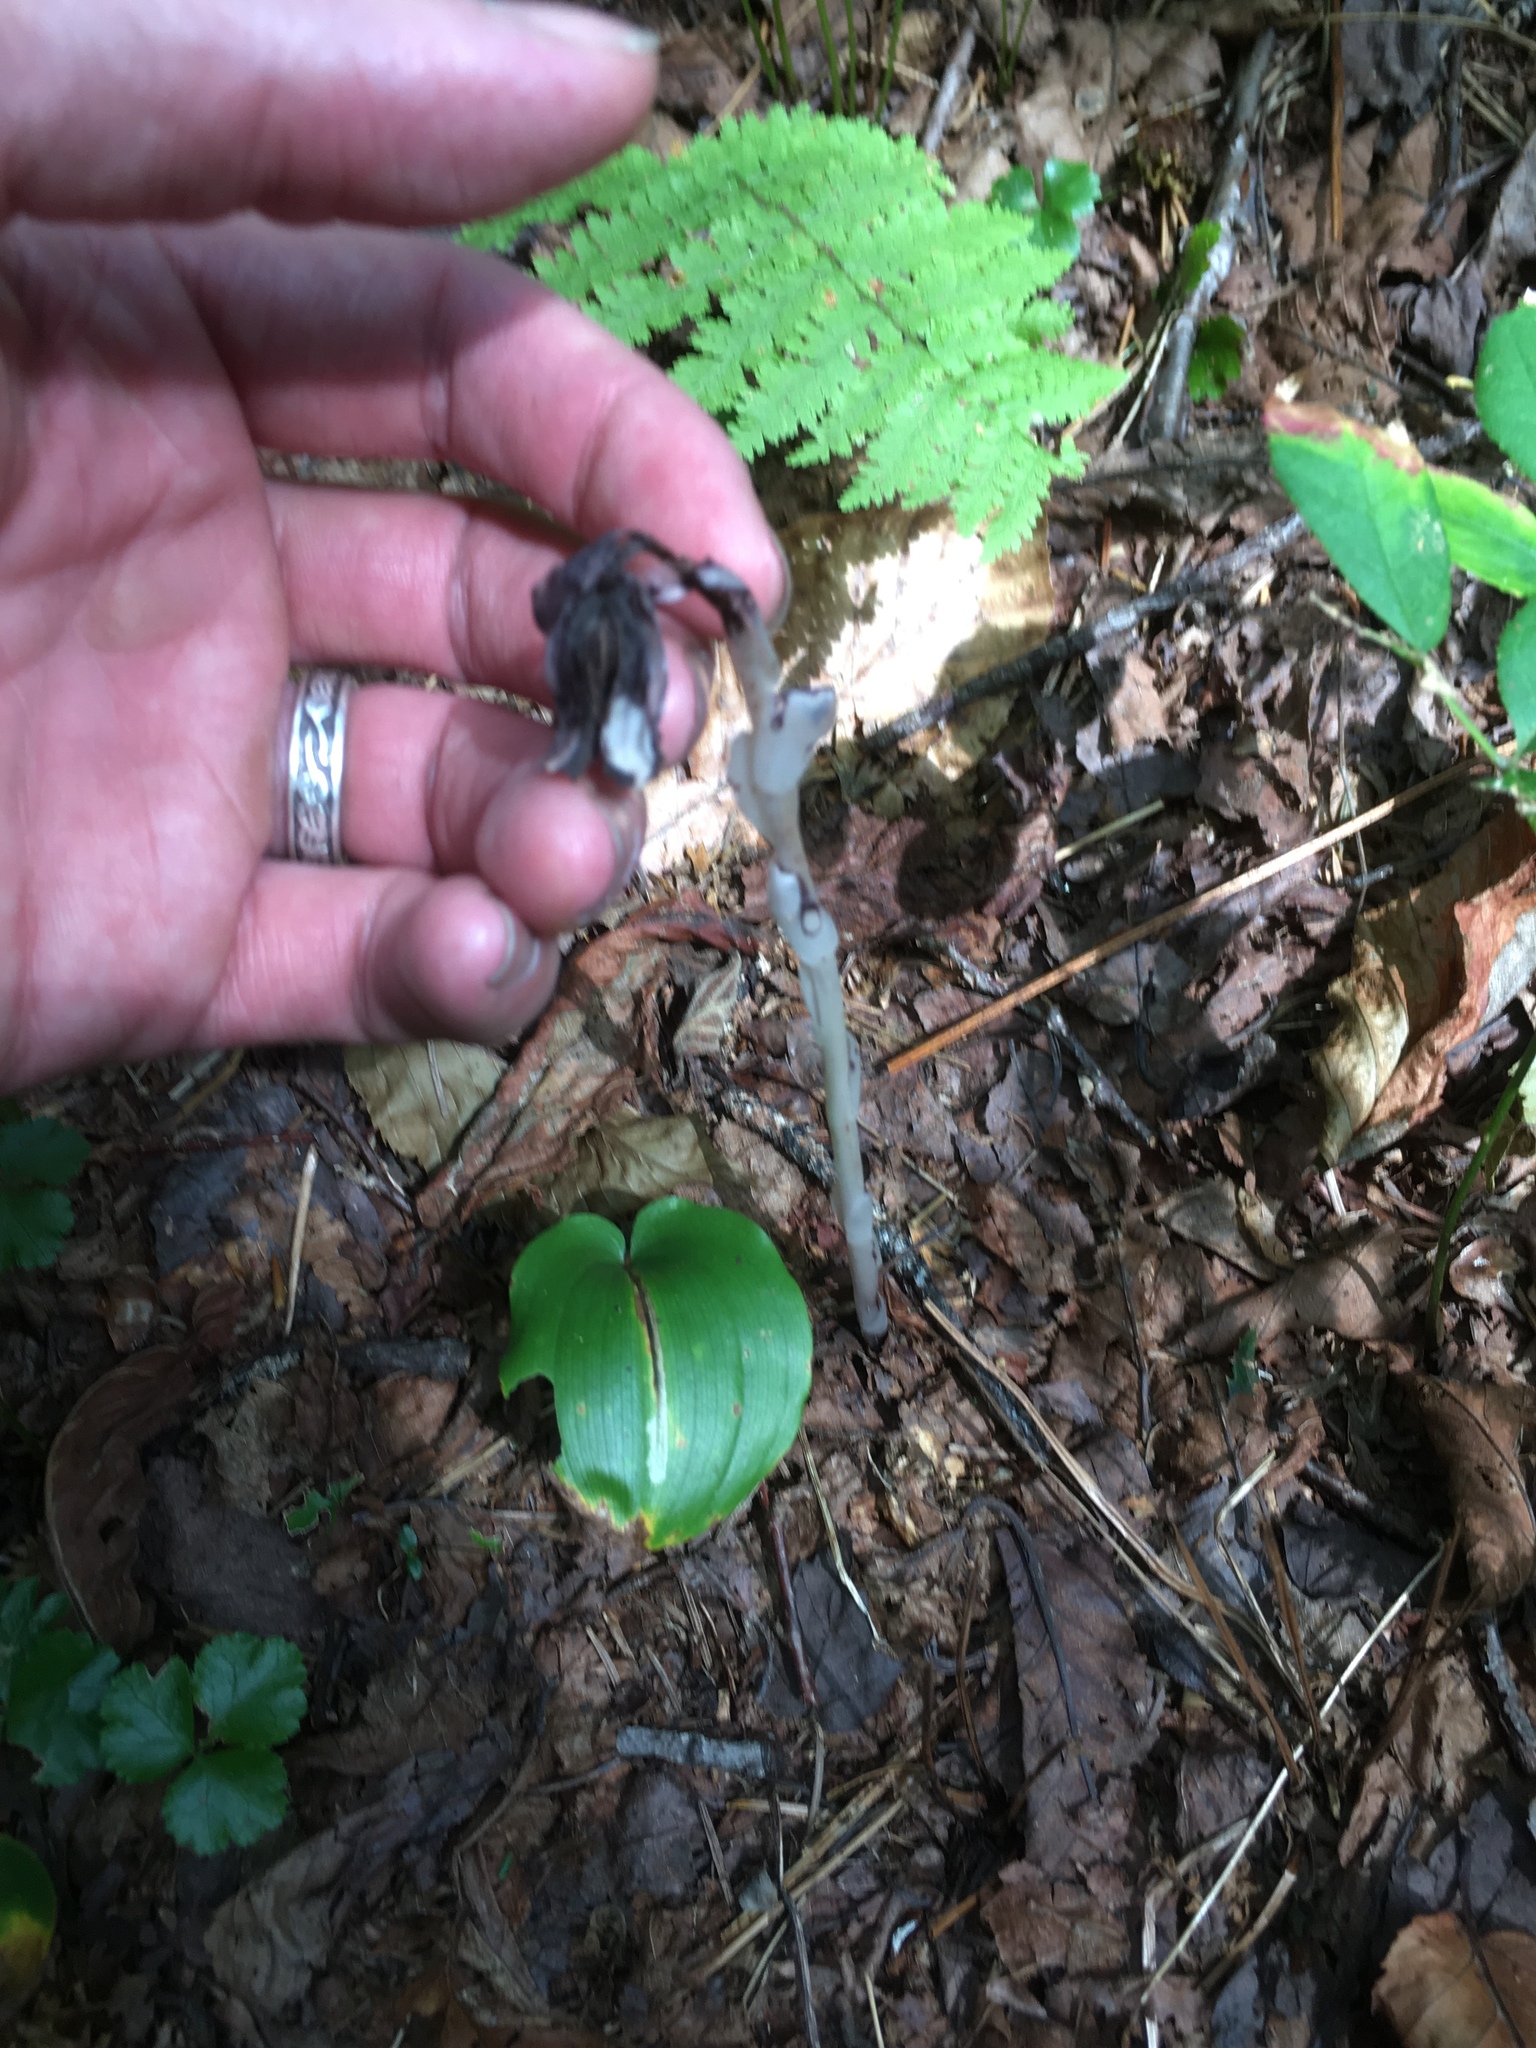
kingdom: Plantae
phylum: Tracheophyta
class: Magnoliopsida
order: Ericales
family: Ericaceae
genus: Monotropa
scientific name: Monotropa uniflora
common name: Convulsion root
